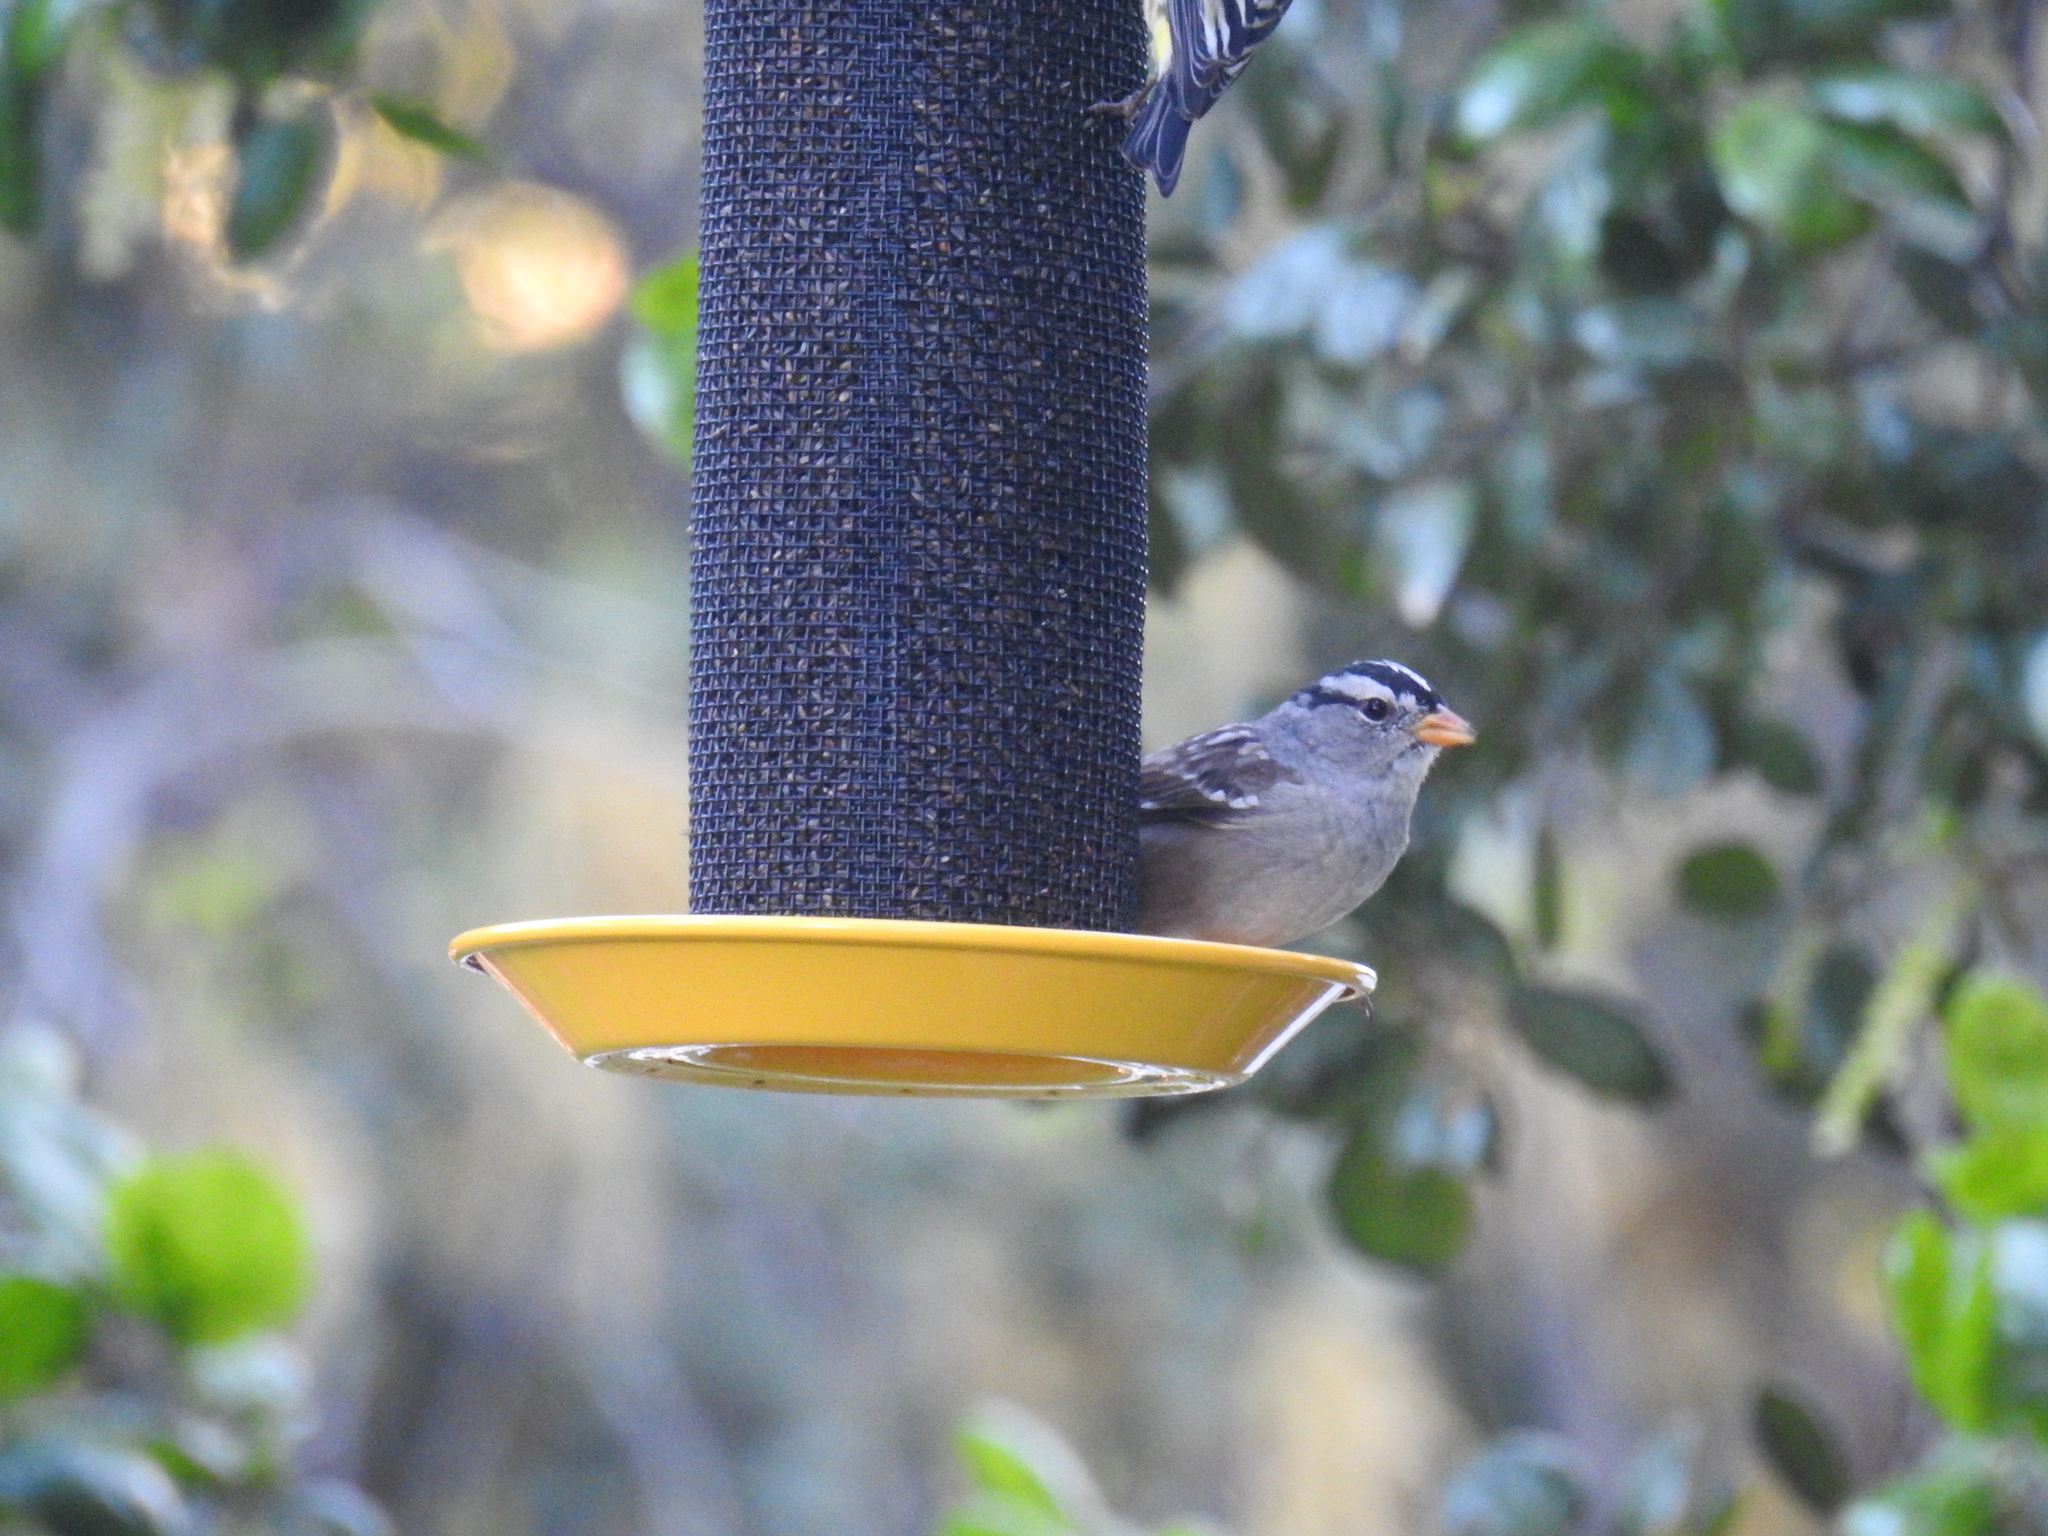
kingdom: Animalia
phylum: Chordata
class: Aves
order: Passeriformes
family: Passerellidae
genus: Zonotrichia
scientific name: Zonotrichia leucophrys
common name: White-crowned sparrow
